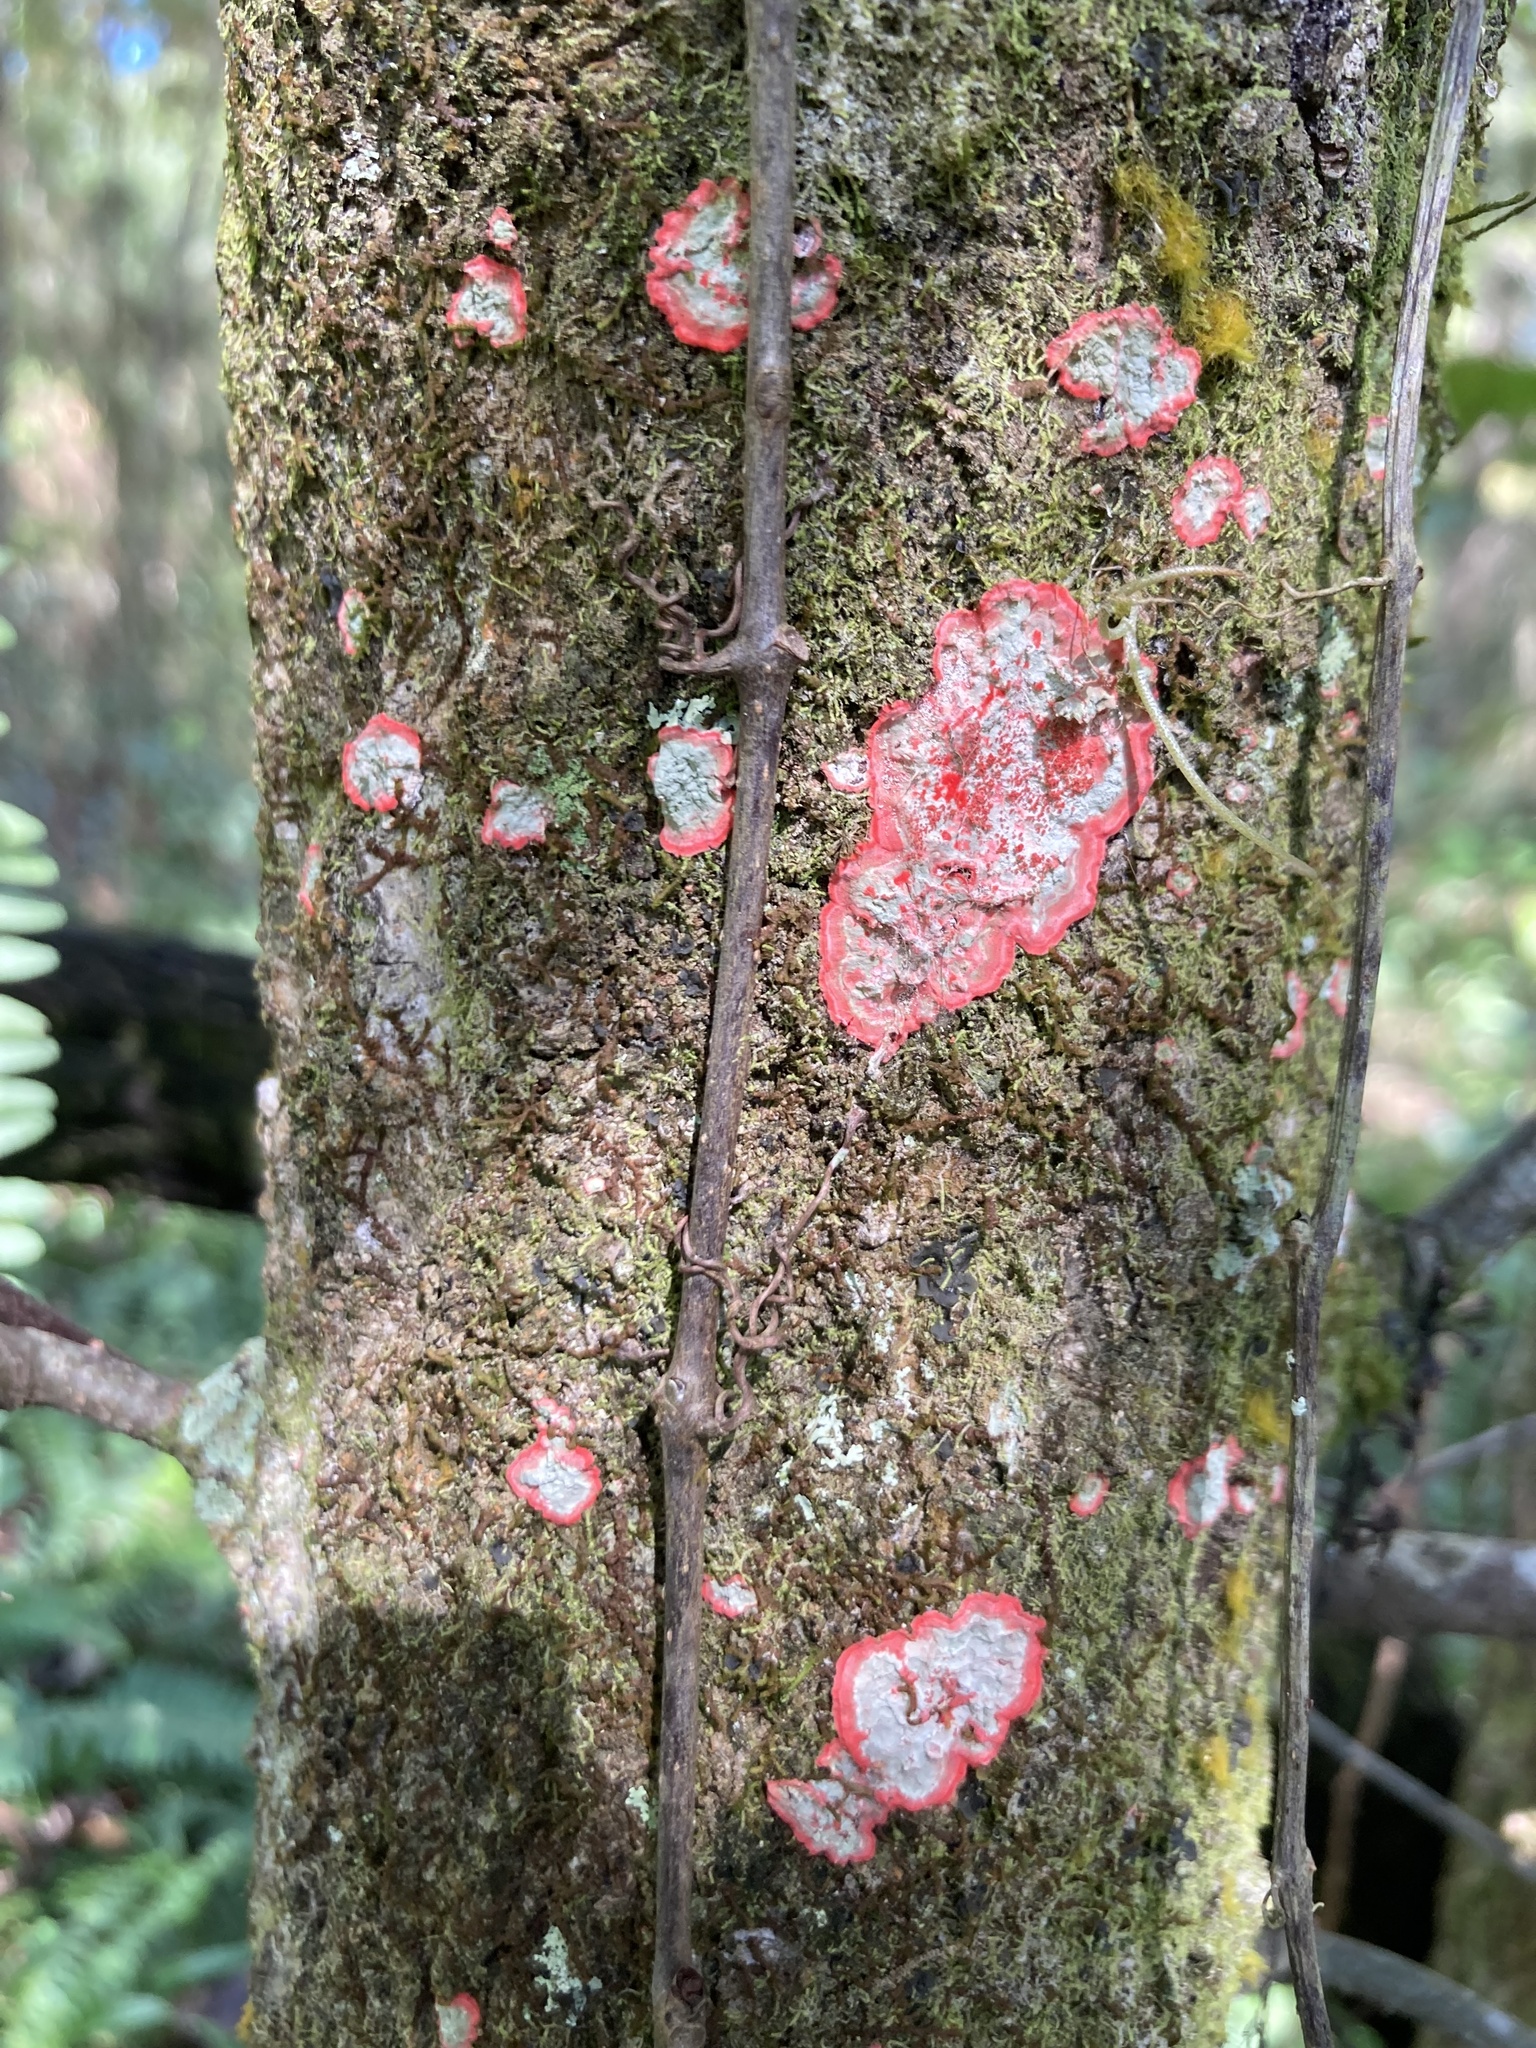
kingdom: Fungi
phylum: Ascomycota
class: Arthoniomycetes
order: Arthoniales
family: Arthoniaceae
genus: Herpothallon
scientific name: Herpothallon rubrocinctum
